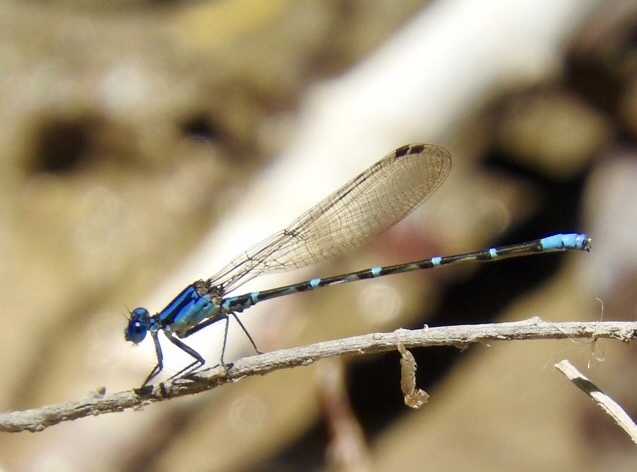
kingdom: Animalia
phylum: Arthropoda
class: Insecta
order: Odonata
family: Coenagrionidae
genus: Argia
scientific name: Argia sedula
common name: Blue-ringed dancer
